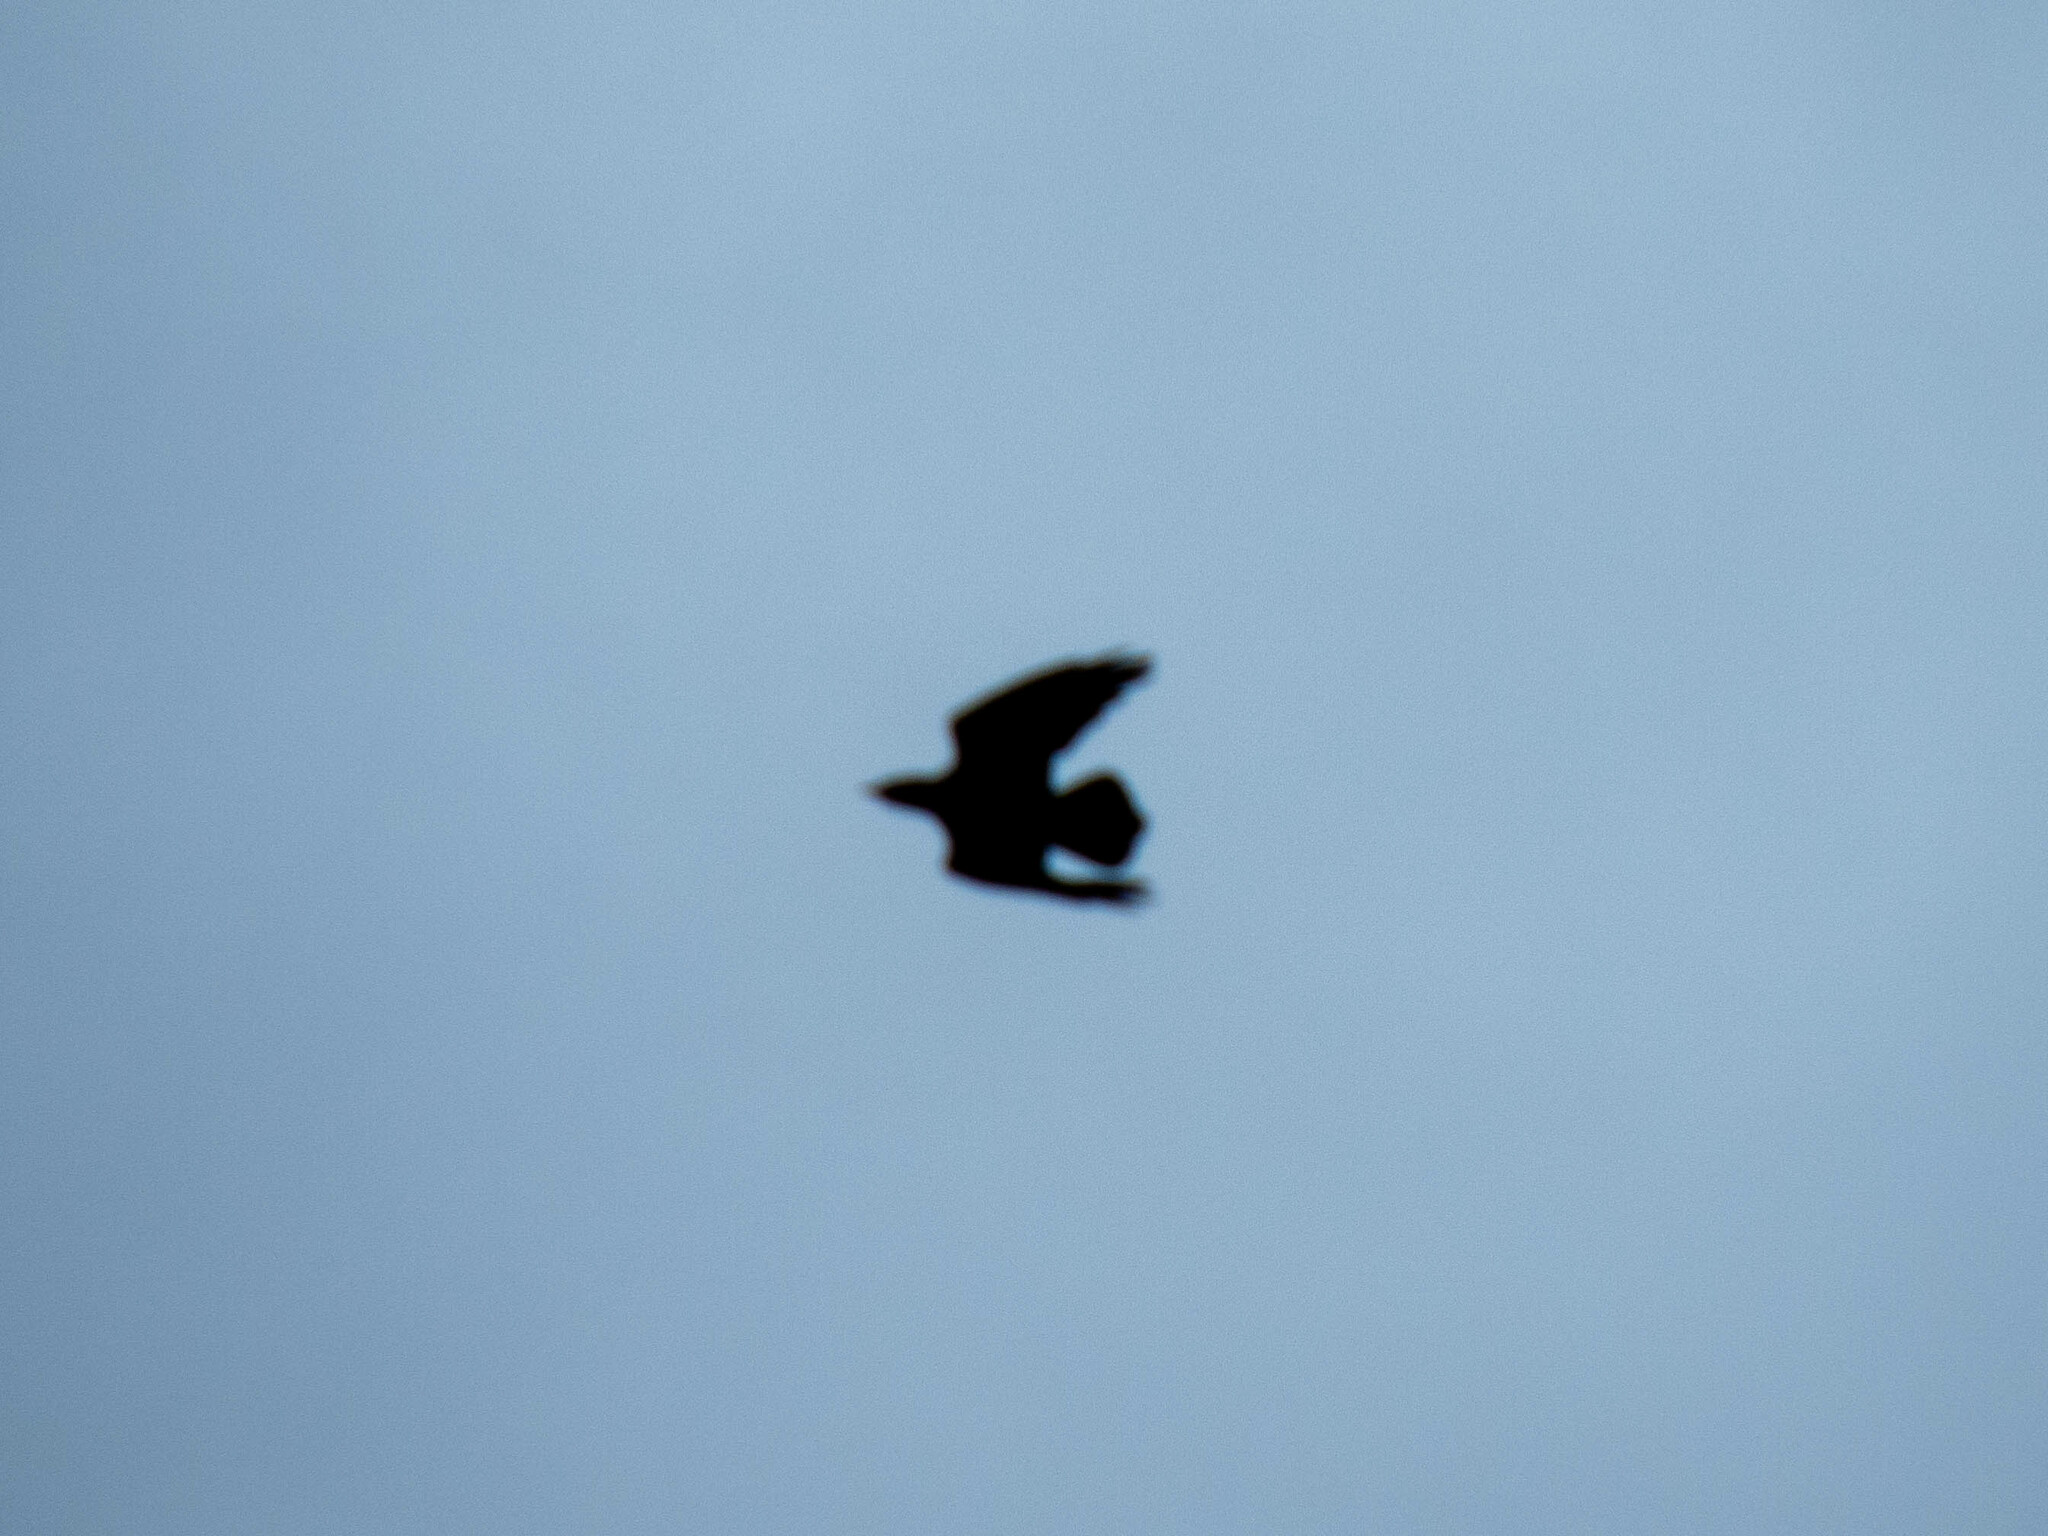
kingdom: Animalia
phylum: Chordata
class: Aves
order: Passeriformes
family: Corvidae
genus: Corvus
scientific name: Corvus corax
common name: Common raven
